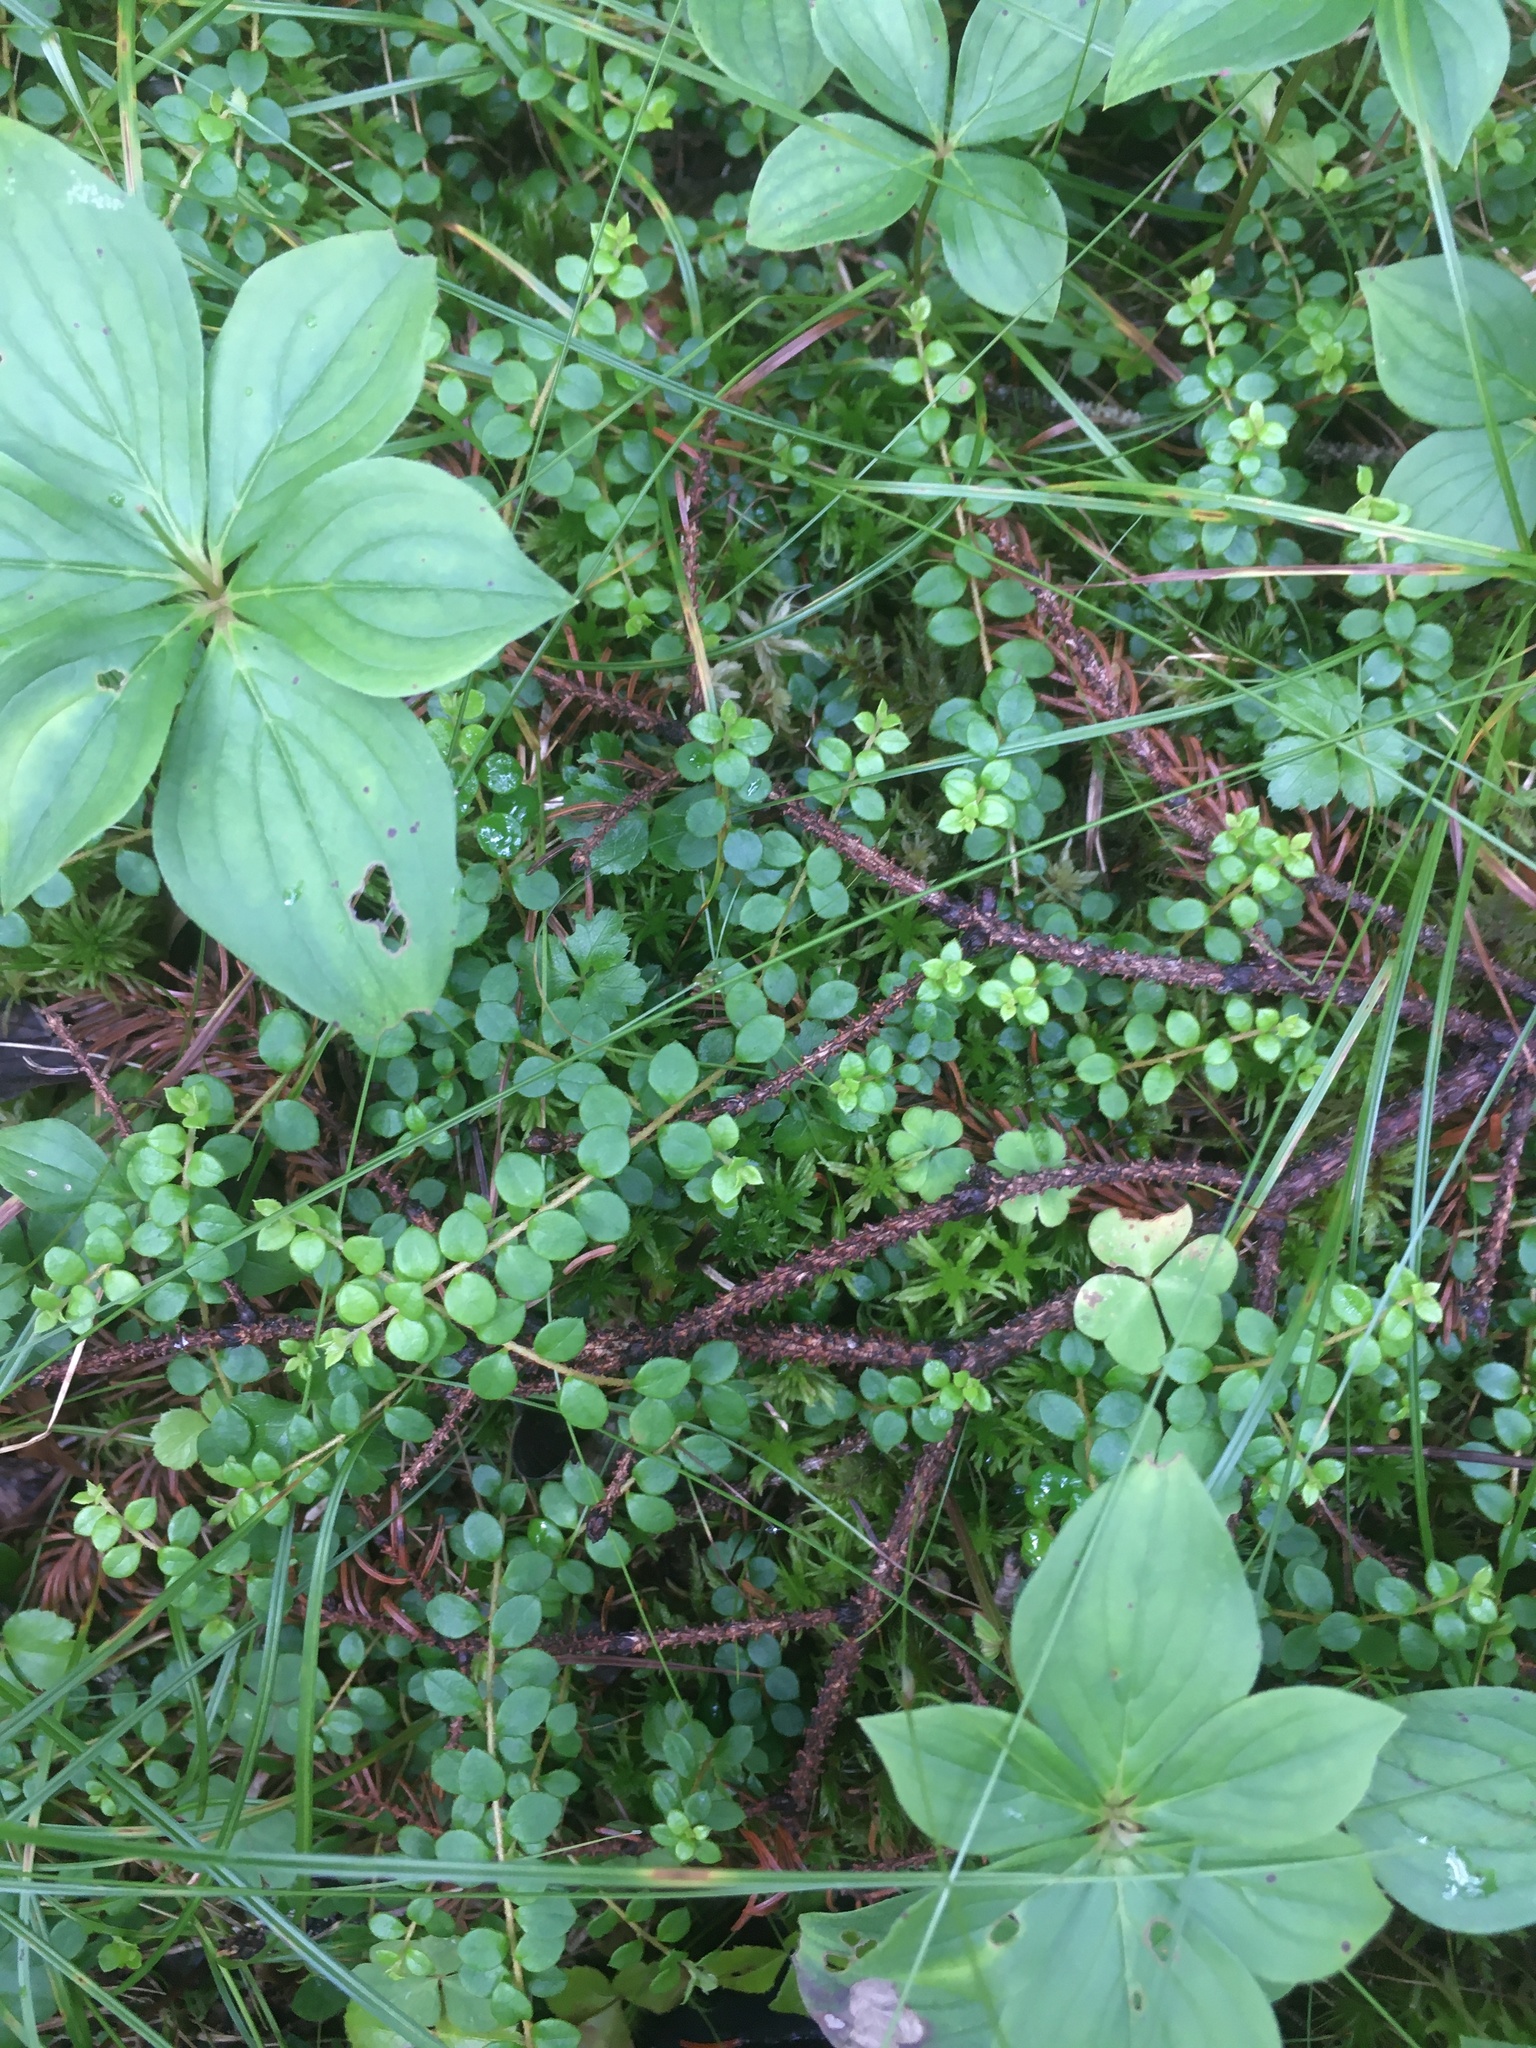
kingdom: Plantae
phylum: Tracheophyta
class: Magnoliopsida
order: Ericales
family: Ericaceae
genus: Gaultheria
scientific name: Gaultheria hispidula
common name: Cancer wintergreen
